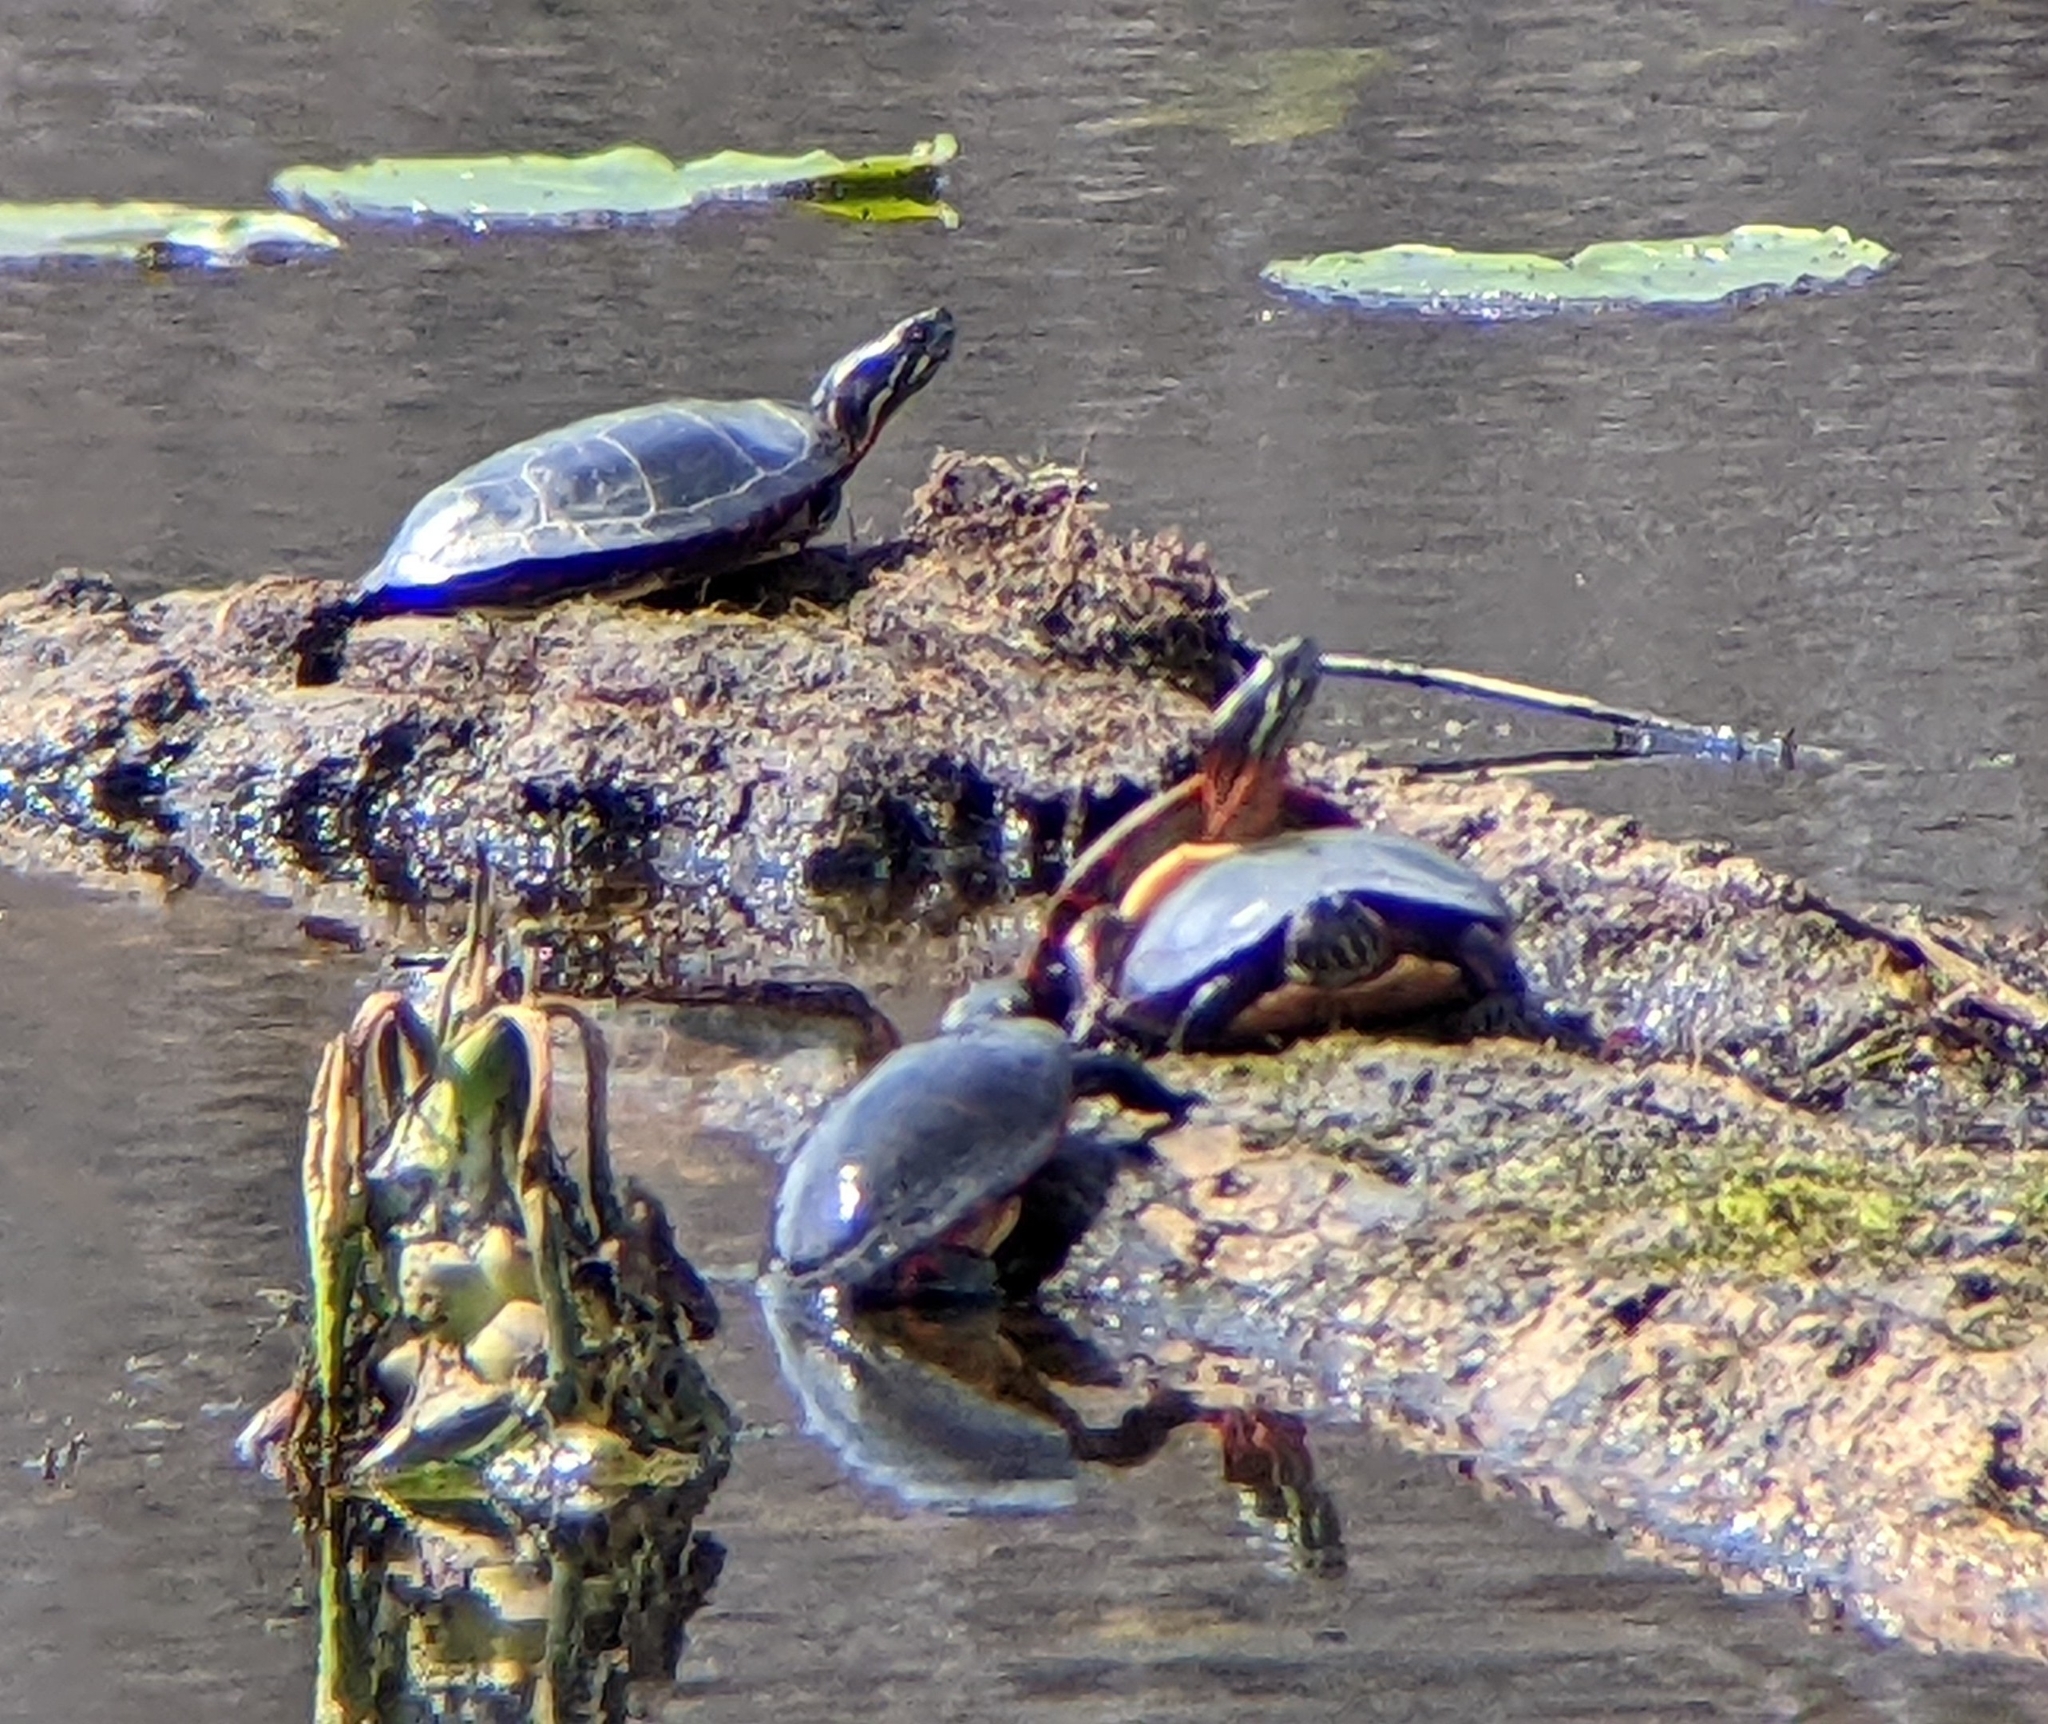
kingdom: Animalia
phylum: Chordata
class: Testudines
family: Emydidae
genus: Chrysemys
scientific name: Chrysemys picta
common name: Painted turtle
